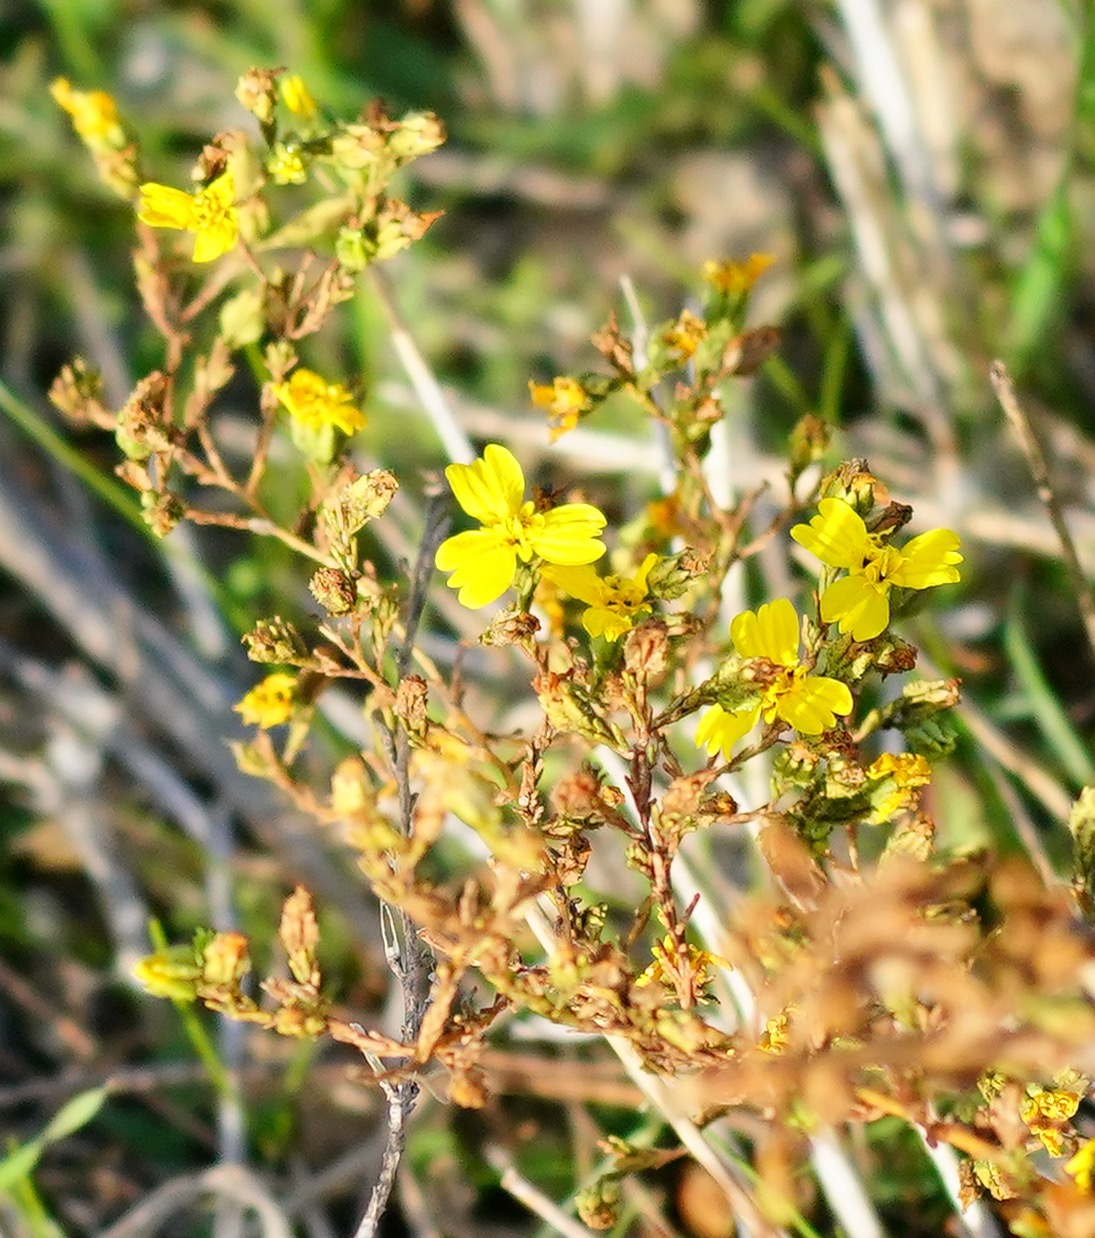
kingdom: Plantae
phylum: Tracheophyta
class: Magnoliopsida
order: Asterales
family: Asteraceae
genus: Deinandra
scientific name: Deinandra lobbii
